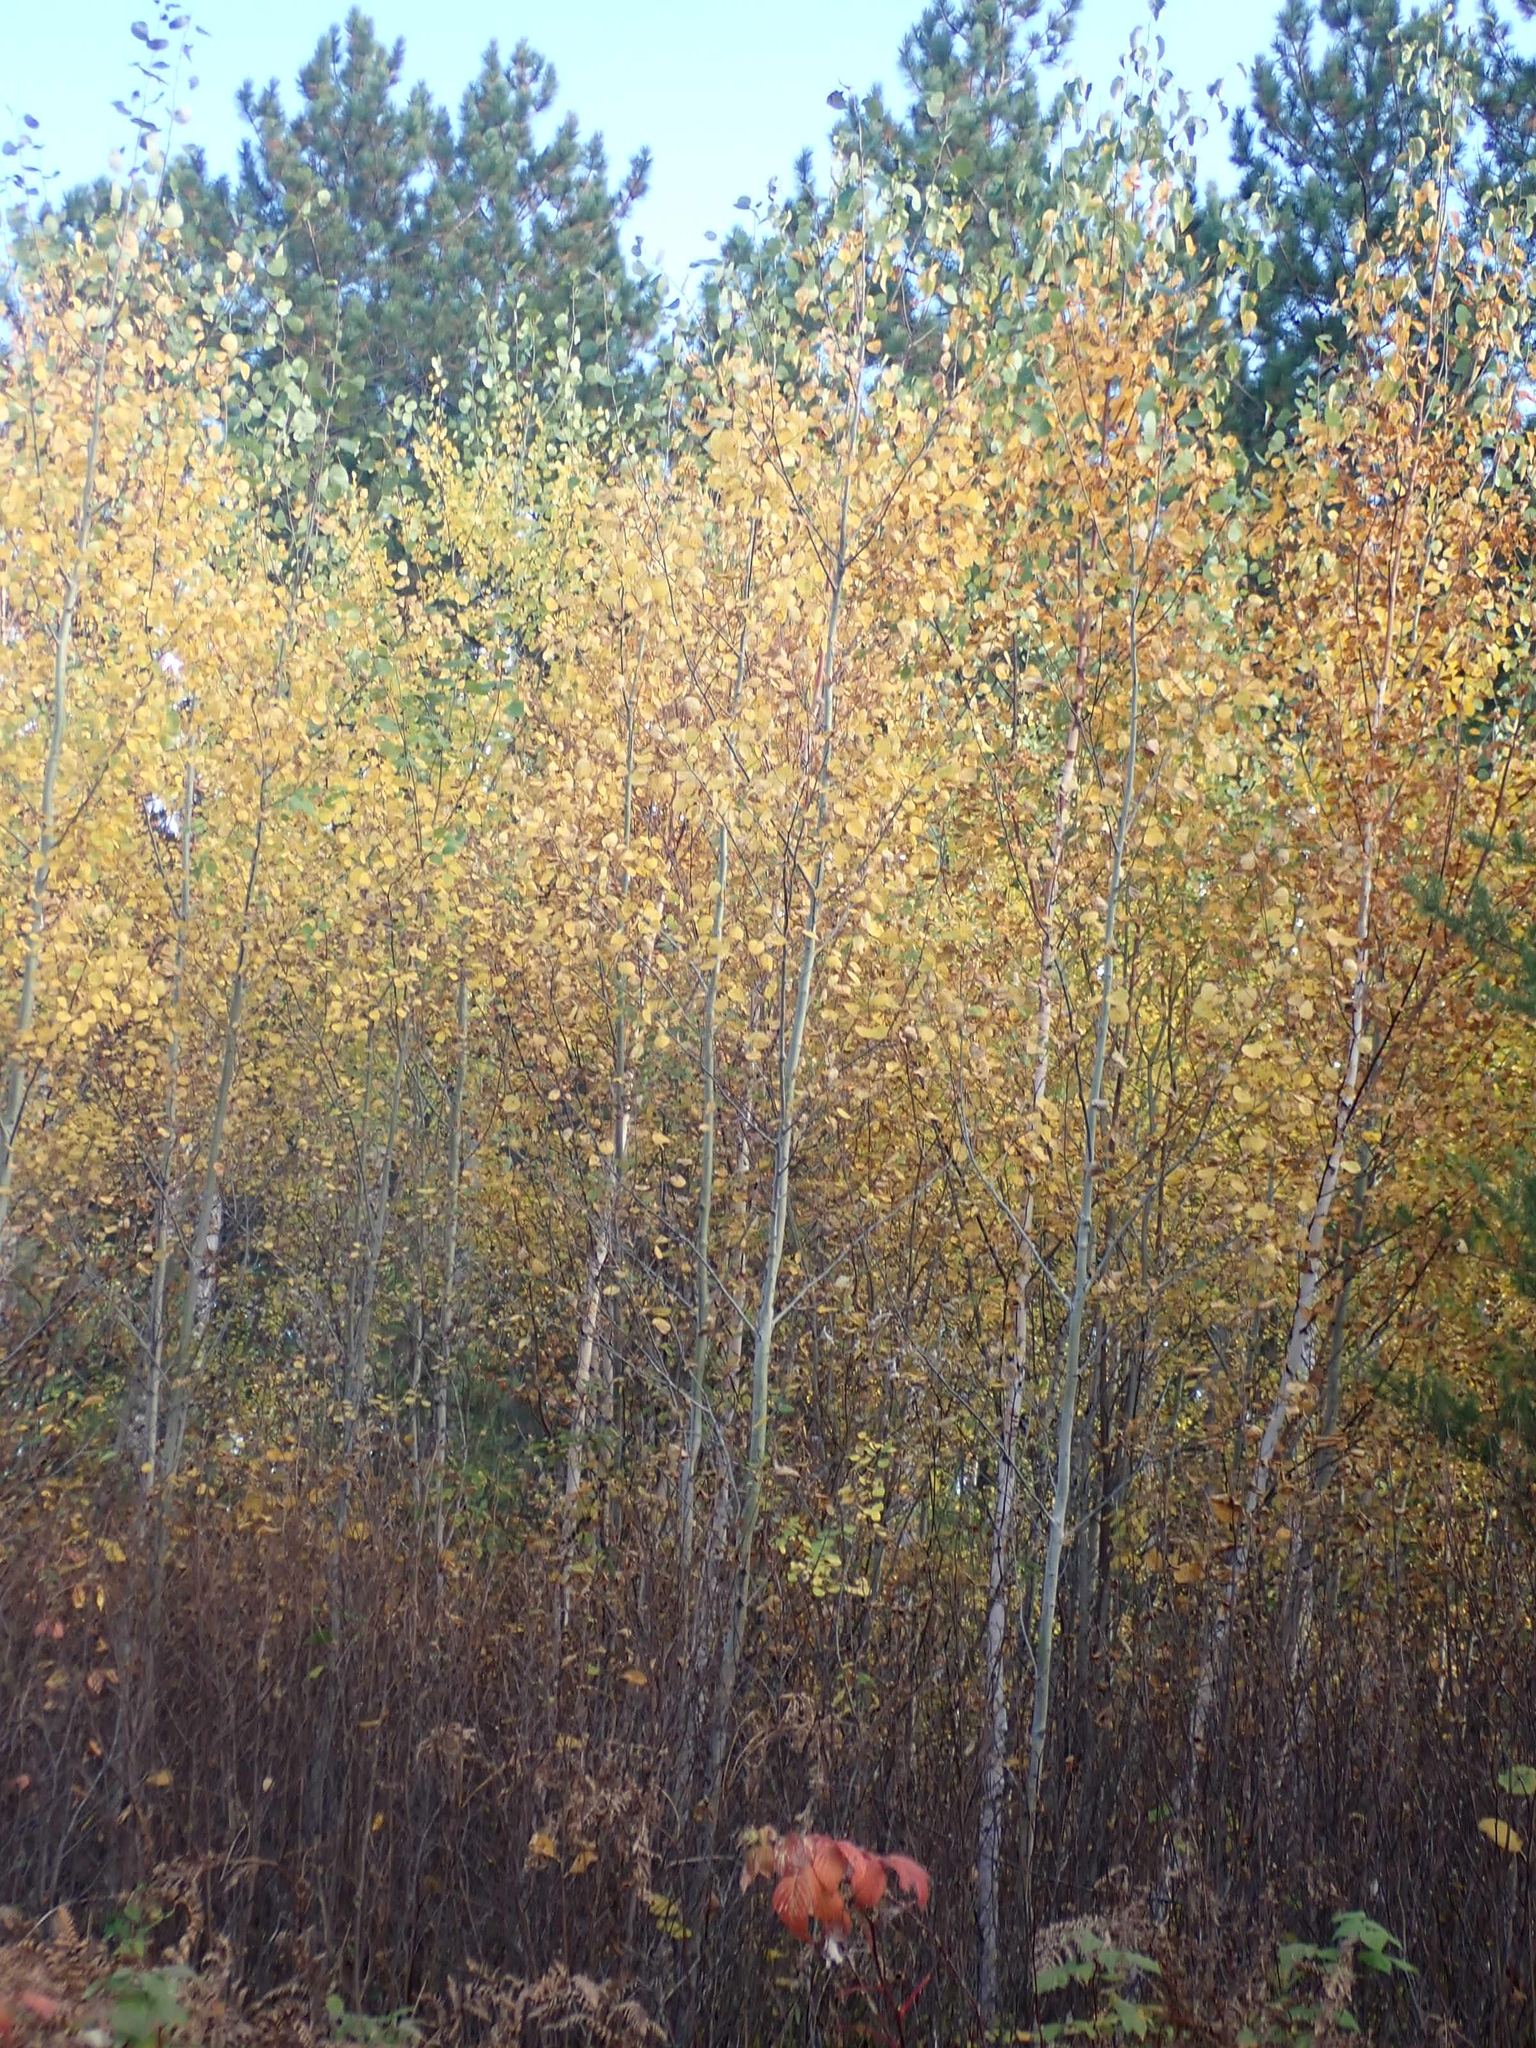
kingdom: Plantae
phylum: Tracheophyta
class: Magnoliopsida
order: Malpighiales
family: Salicaceae
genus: Populus
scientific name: Populus tremuloides
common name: Quaking aspen
